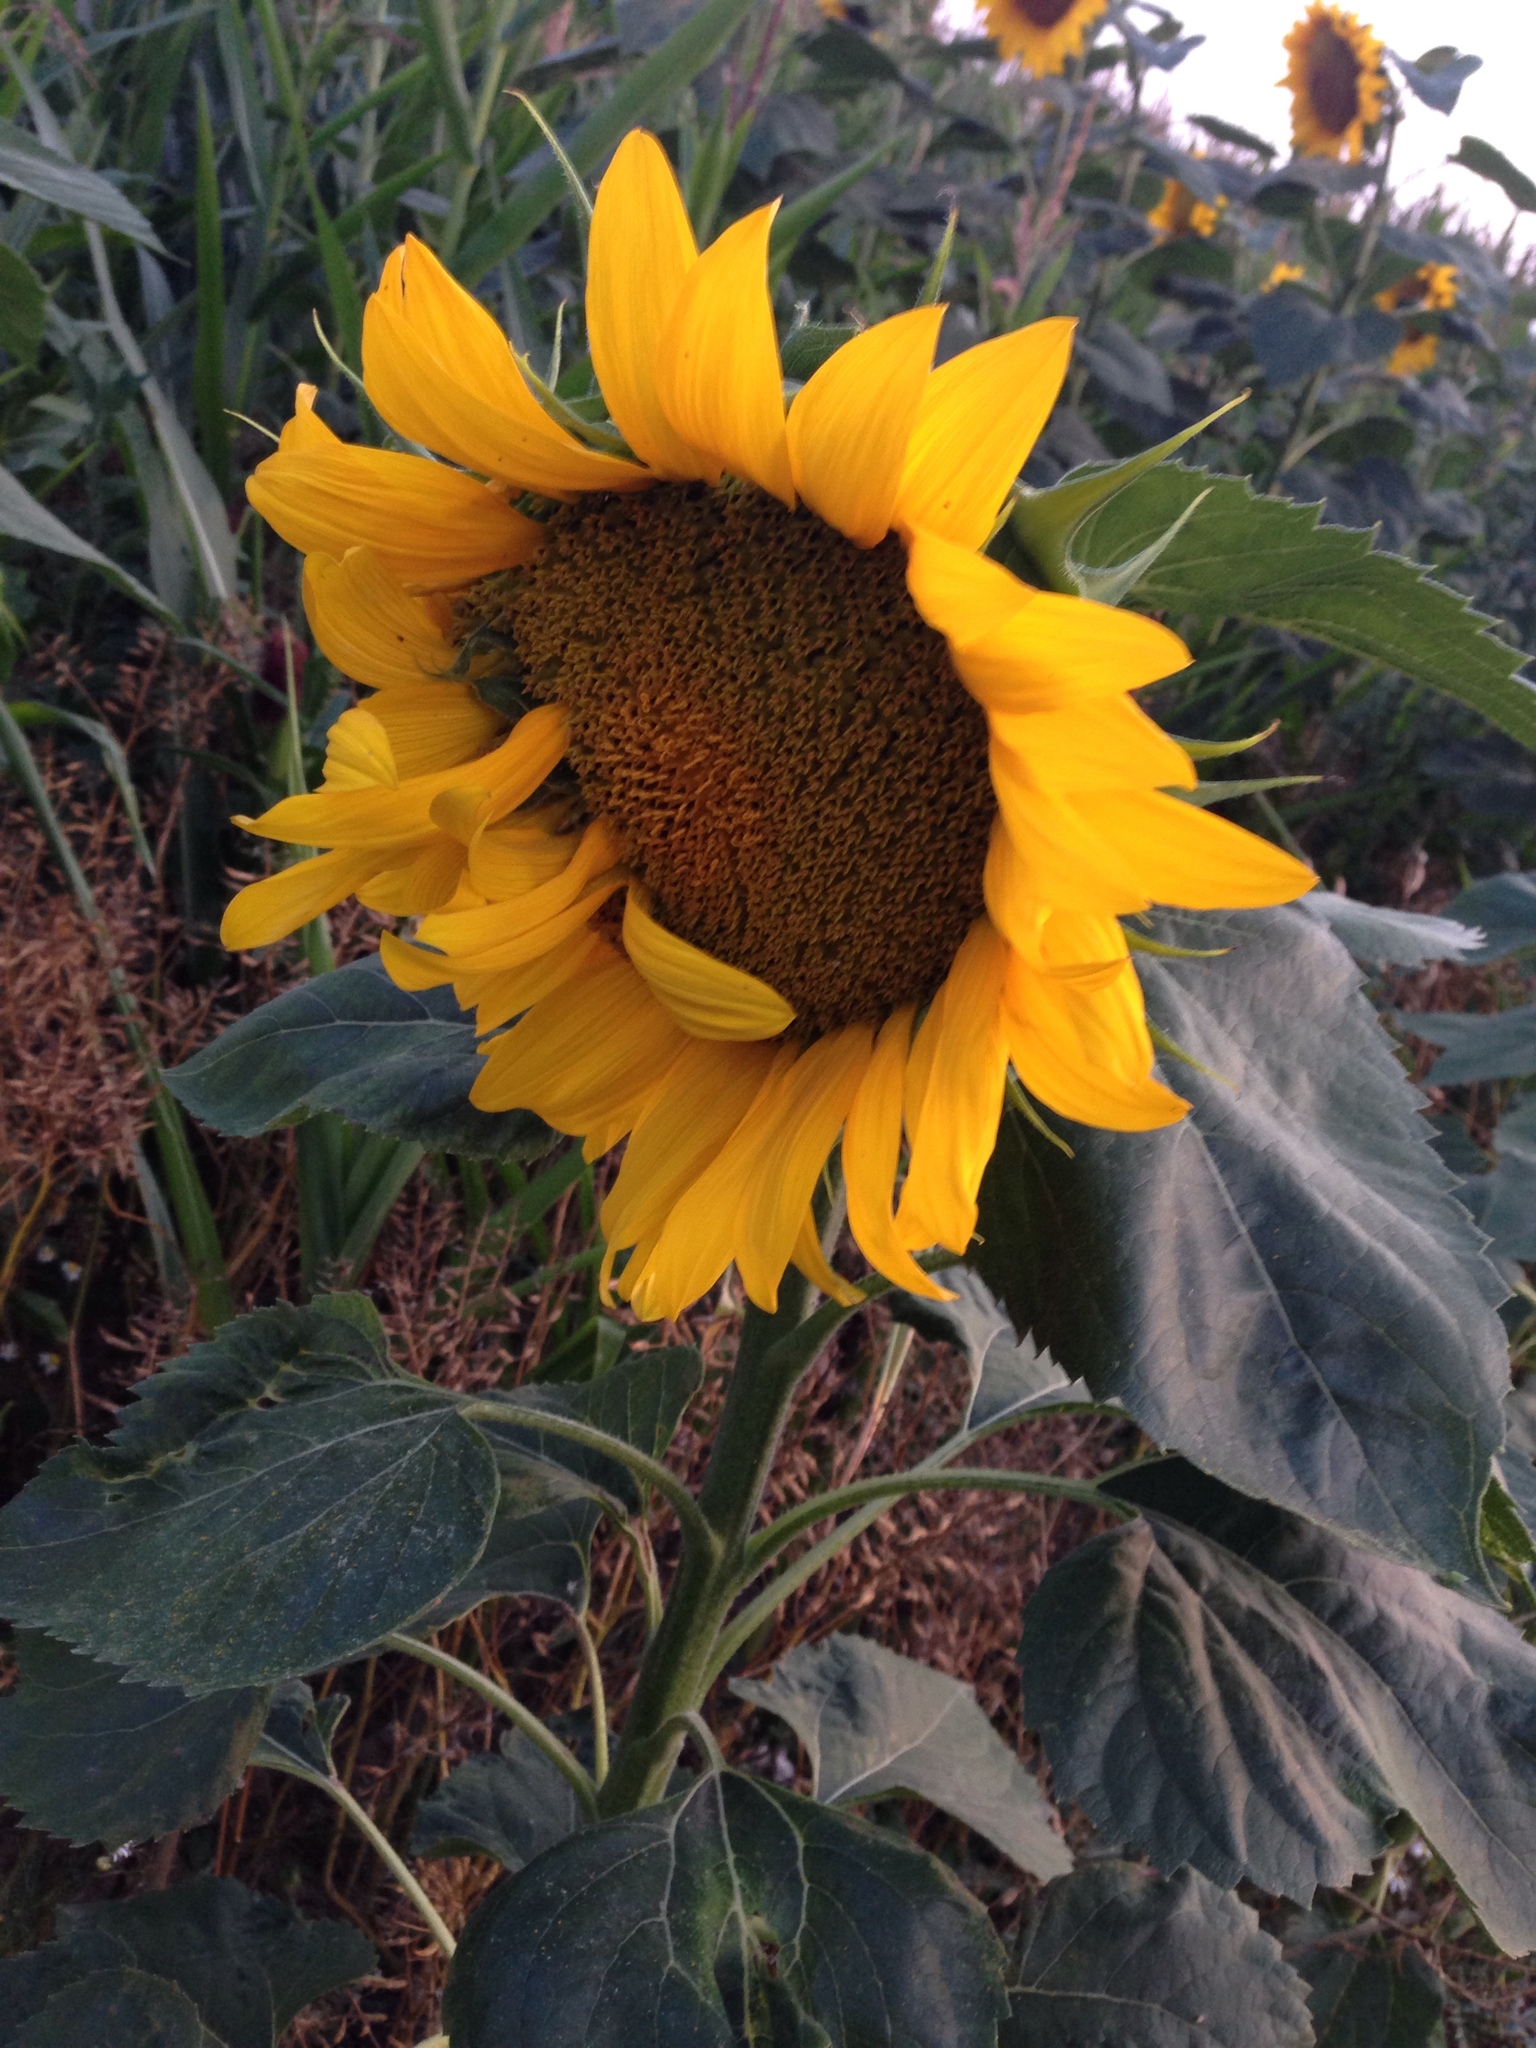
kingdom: Plantae
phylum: Tracheophyta
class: Magnoliopsida
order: Asterales
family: Asteraceae
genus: Helianthus
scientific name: Helianthus annuus
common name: Sunflower
